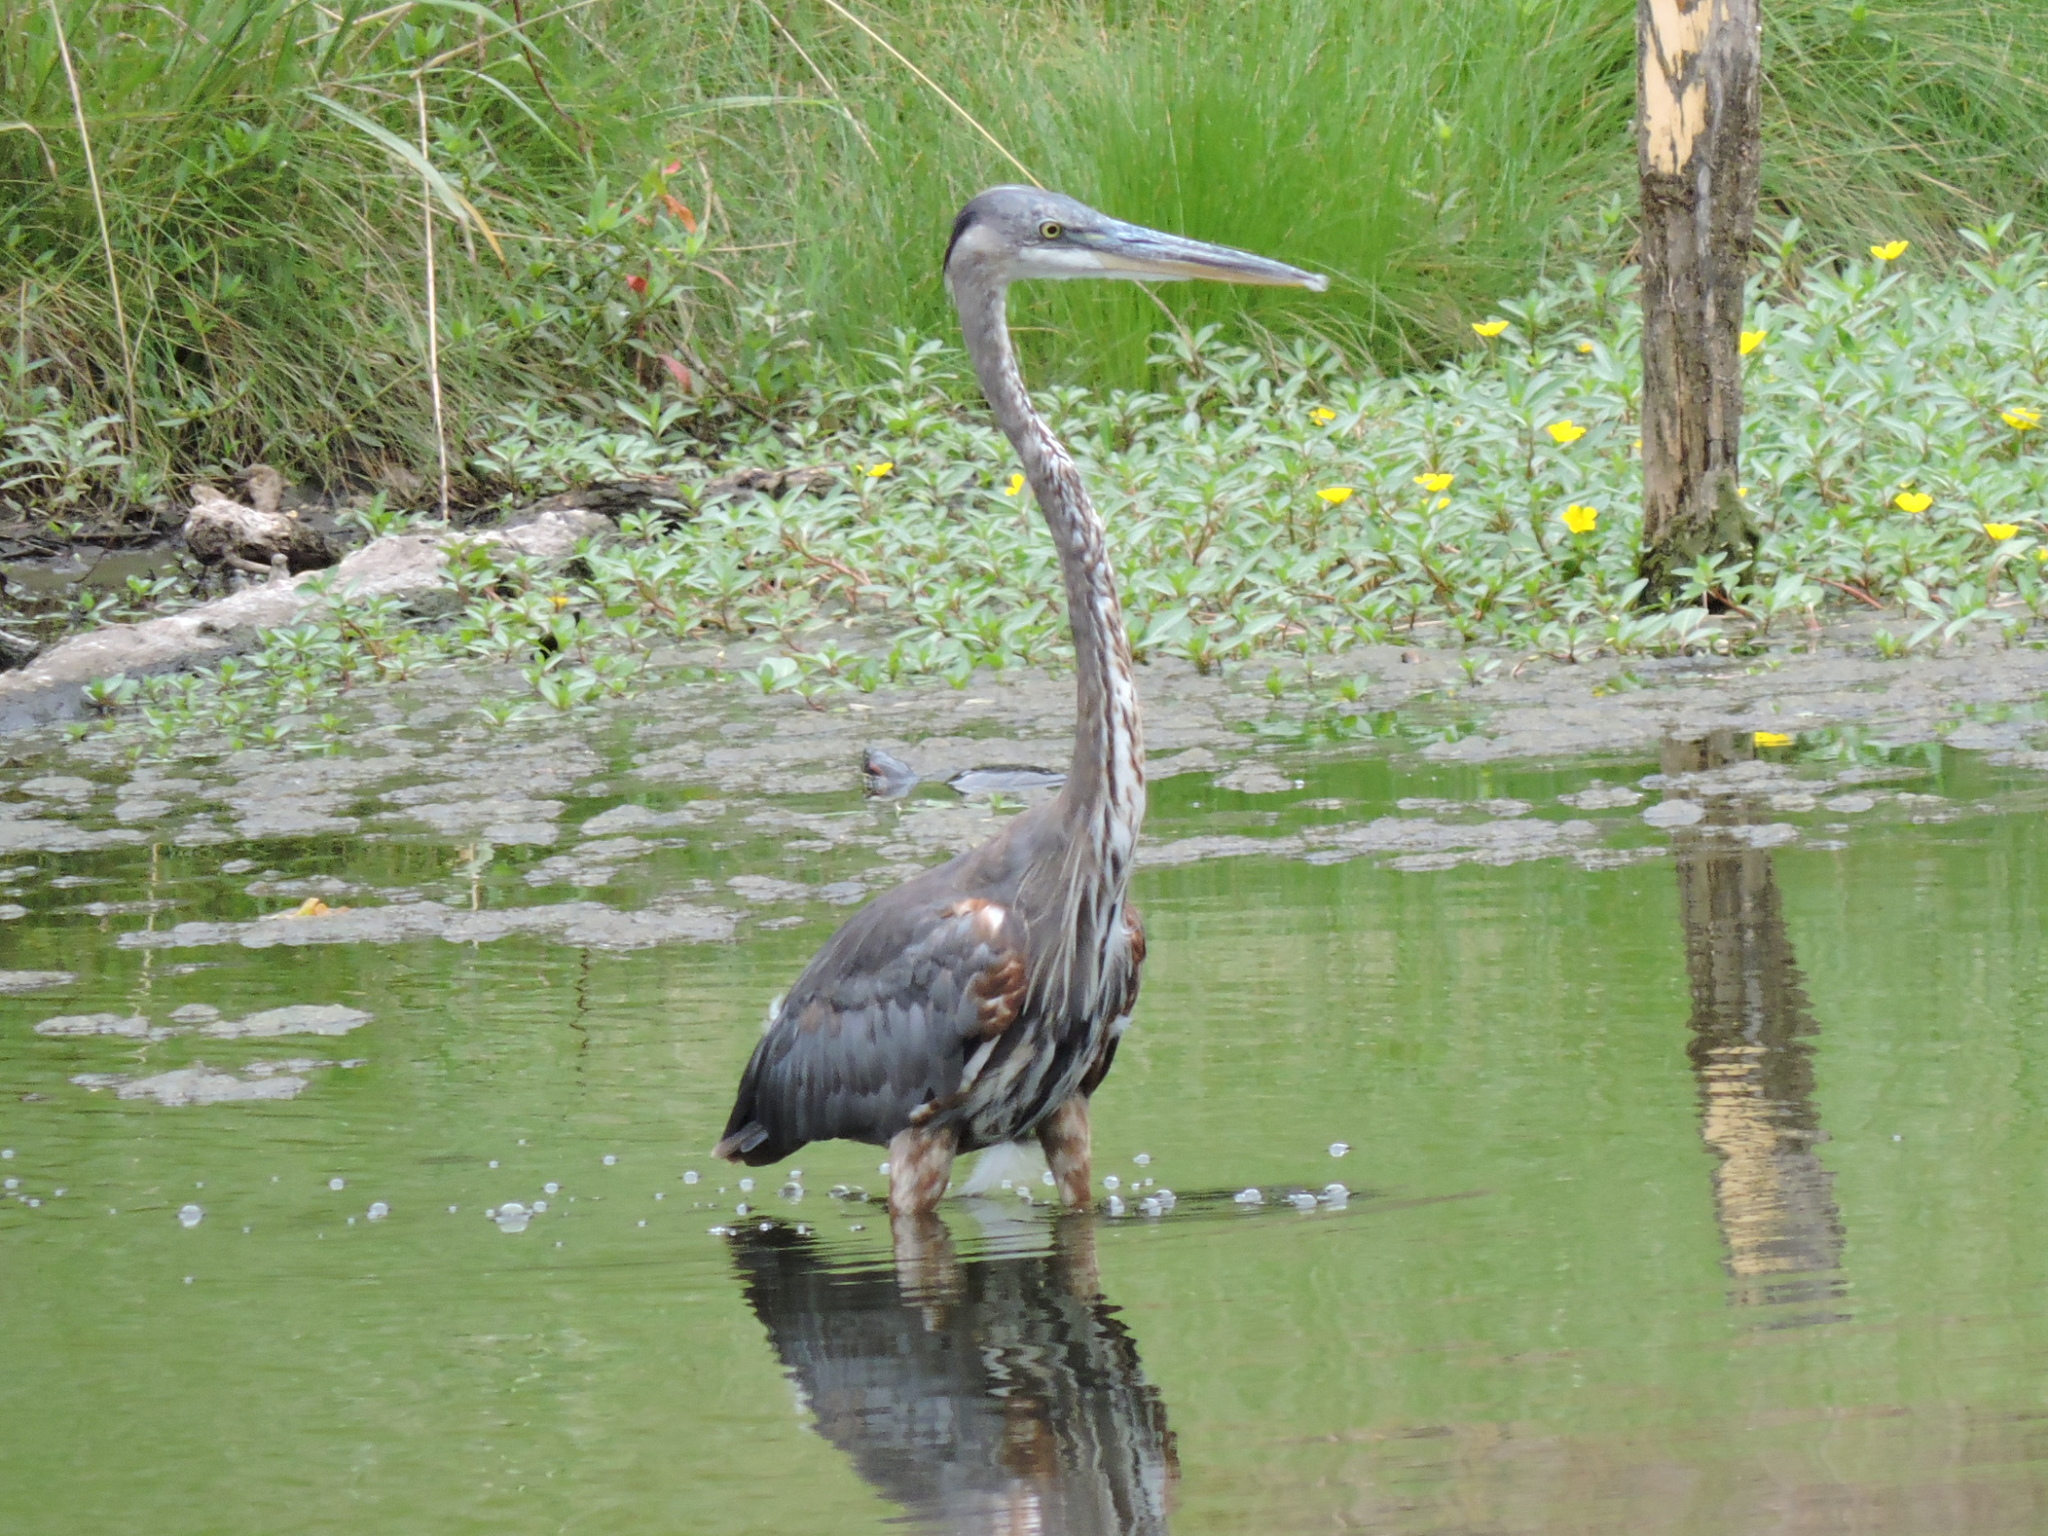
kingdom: Animalia
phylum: Chordata
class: Aves
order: Pelecaniformes
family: Ardeidae
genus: Ardea
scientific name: Ardea herodias
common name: Great blue heron
